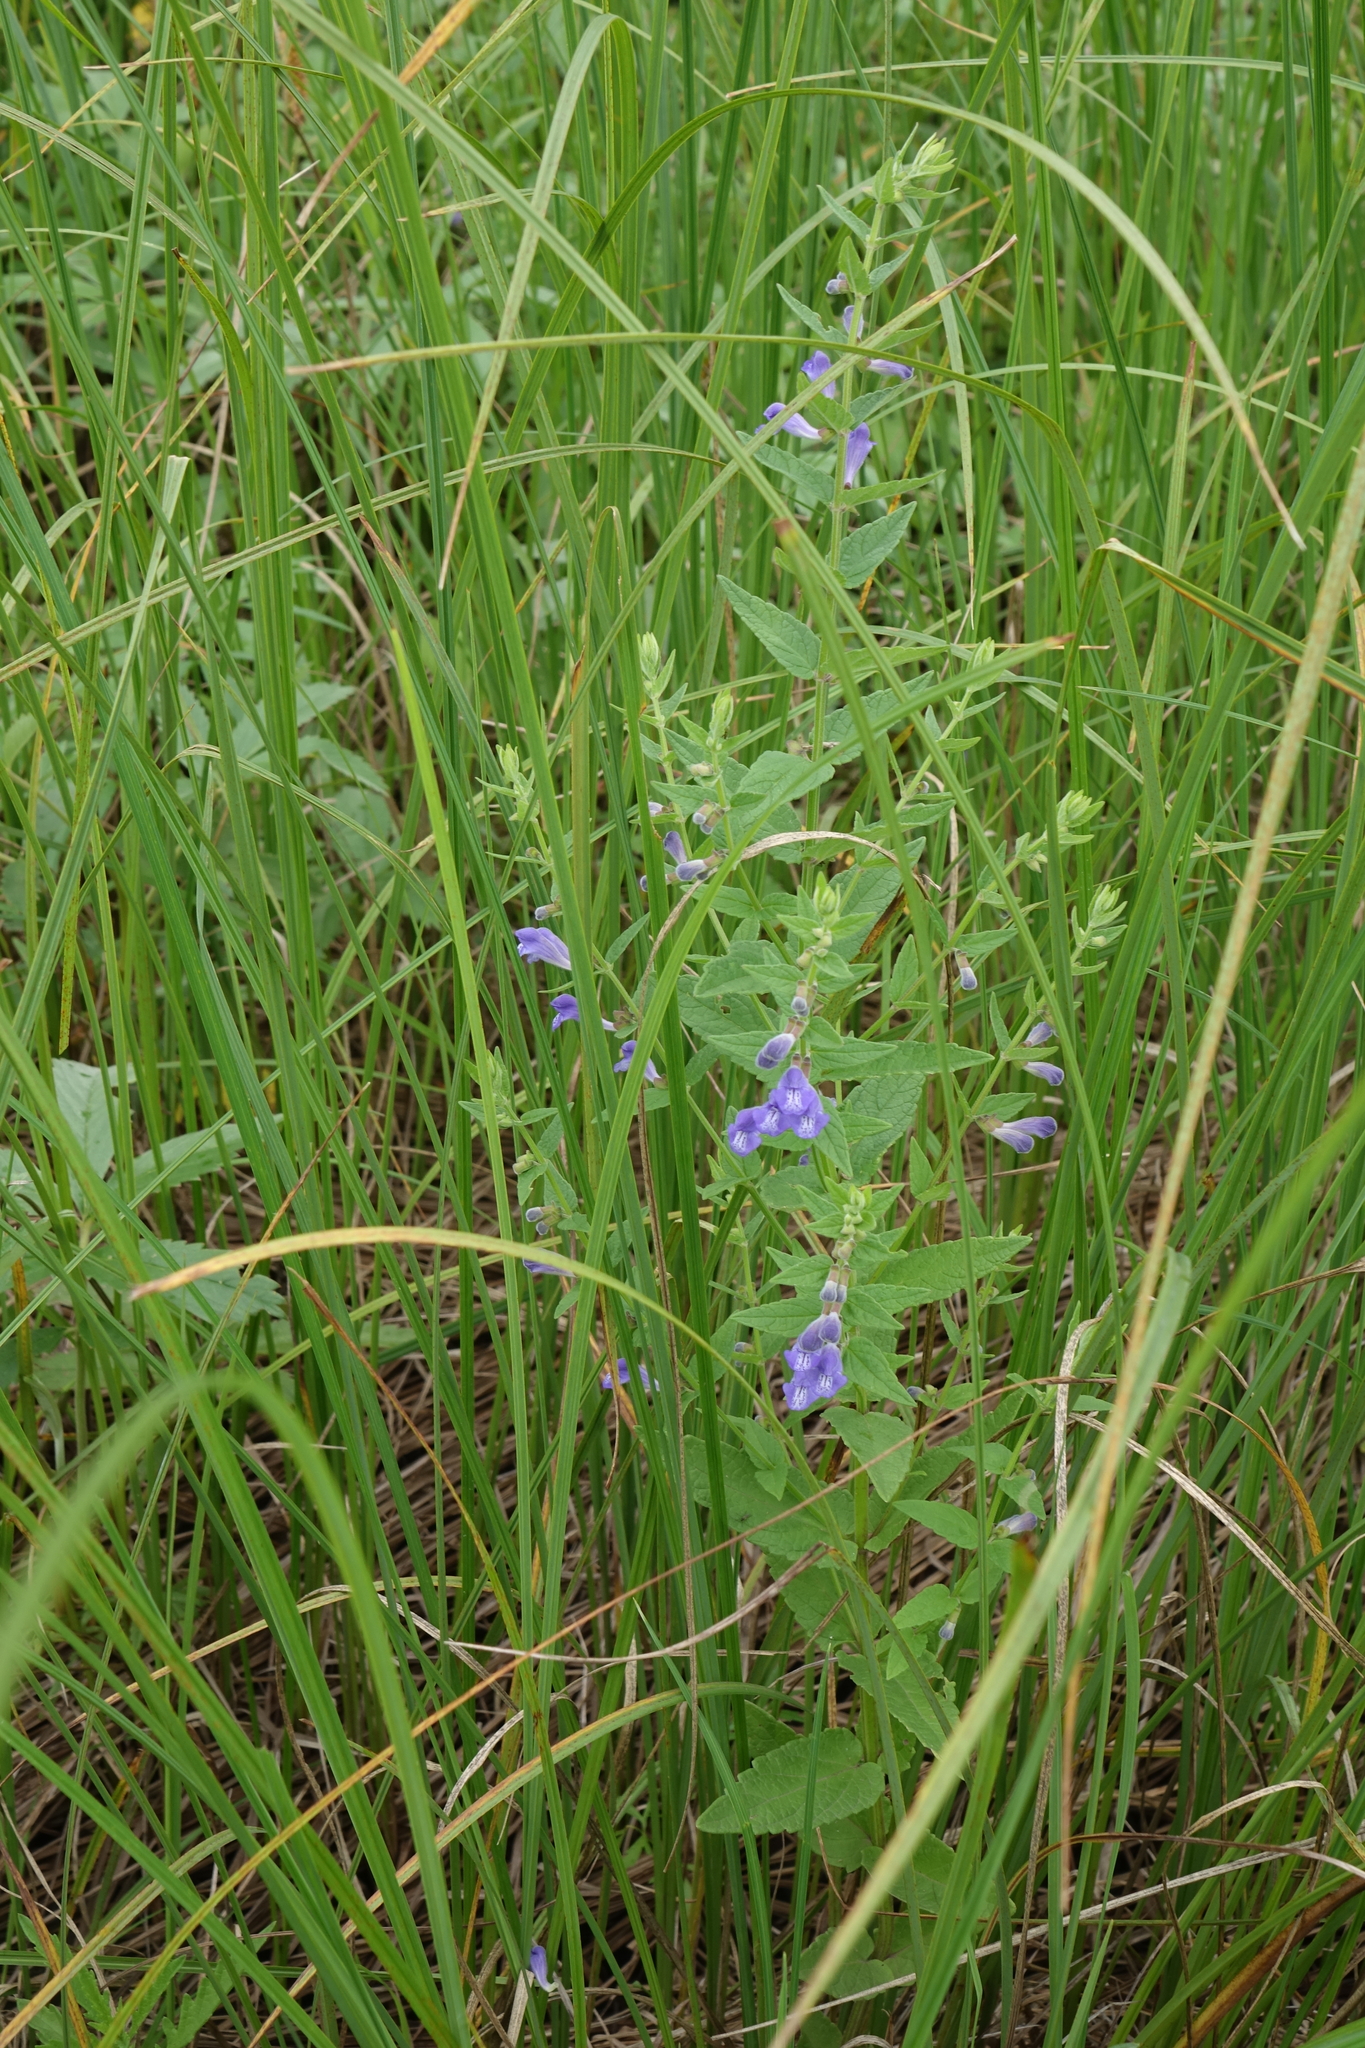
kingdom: Plantae
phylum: Tracheophyta
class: Magnoliopsida
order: Lamiales
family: Lamiaceae
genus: Scutellaria
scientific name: Scutellaria galericulata
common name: Skullcap
